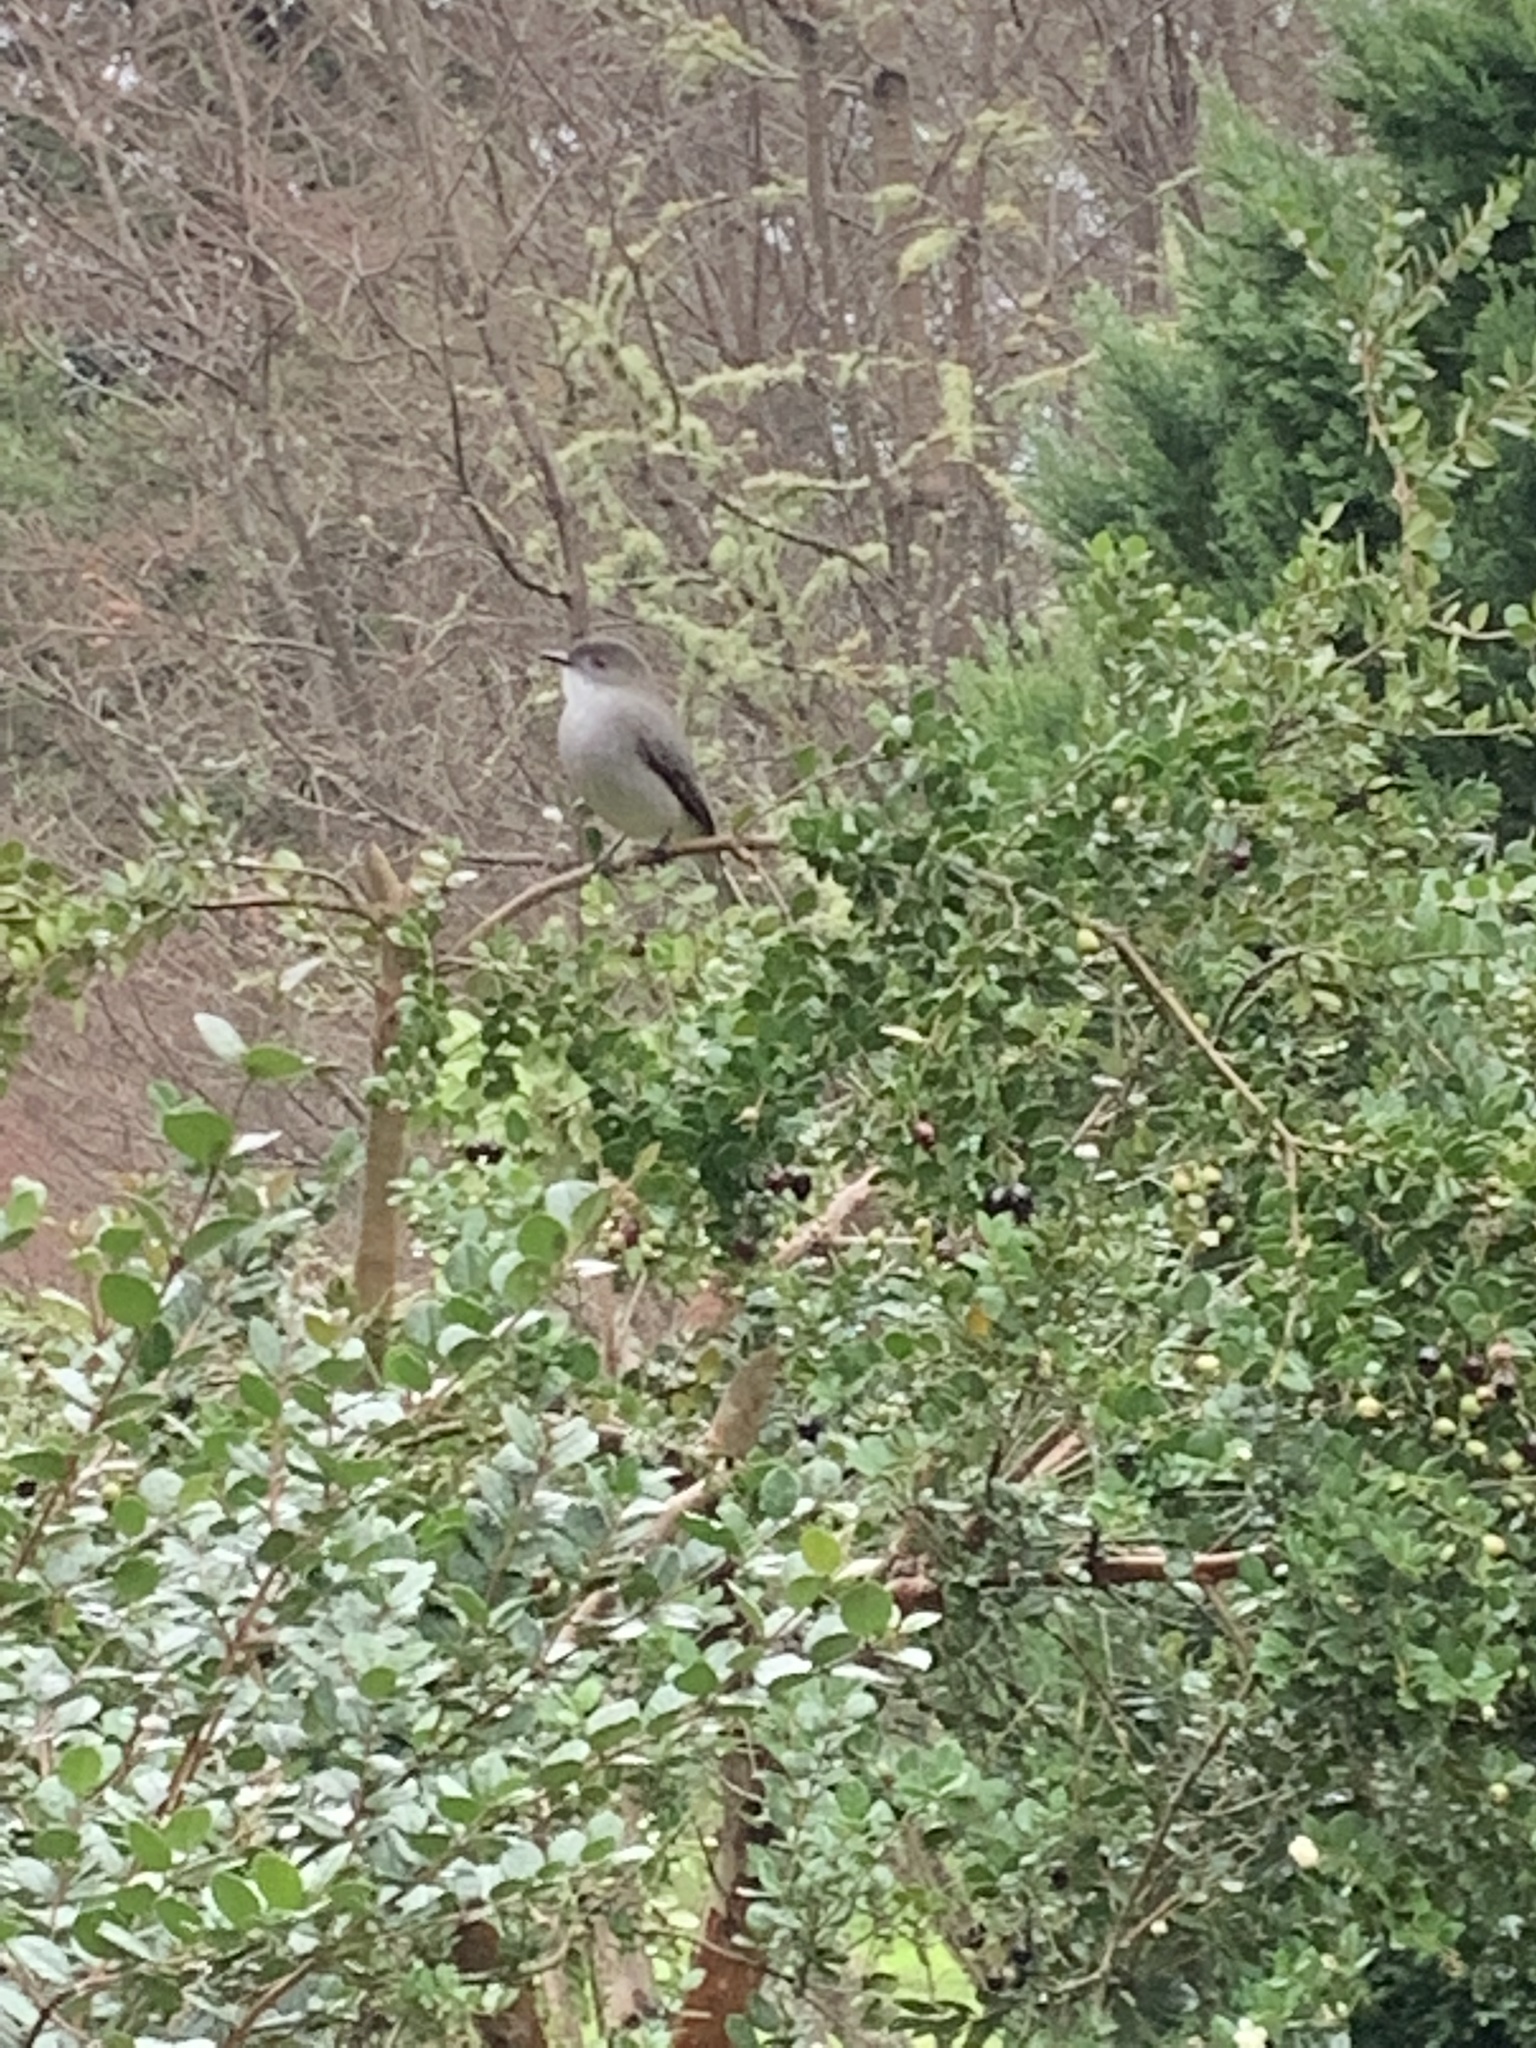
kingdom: Animalia
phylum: Chordata
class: Aves
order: Passeriformes
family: Tyrannidae
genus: Xolmis
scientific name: Xolmis pyrope
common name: Fire-eyed diucon
